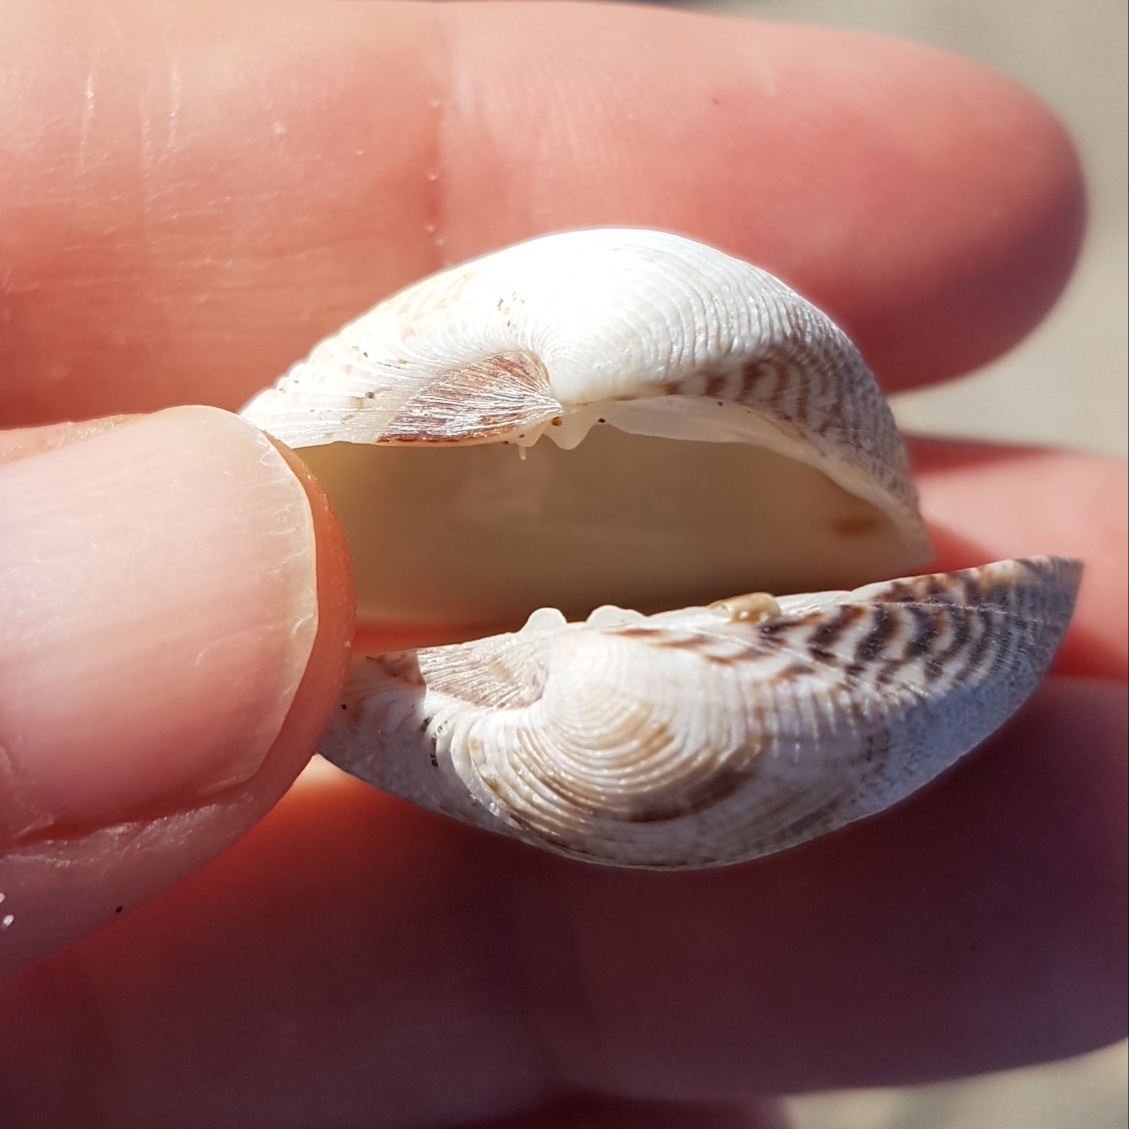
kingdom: Animalia
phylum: Mollusca
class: Bivalvia
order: Venerida
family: Veneridae
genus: Chamelea
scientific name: Chamelea gallina
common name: Chicken venus
